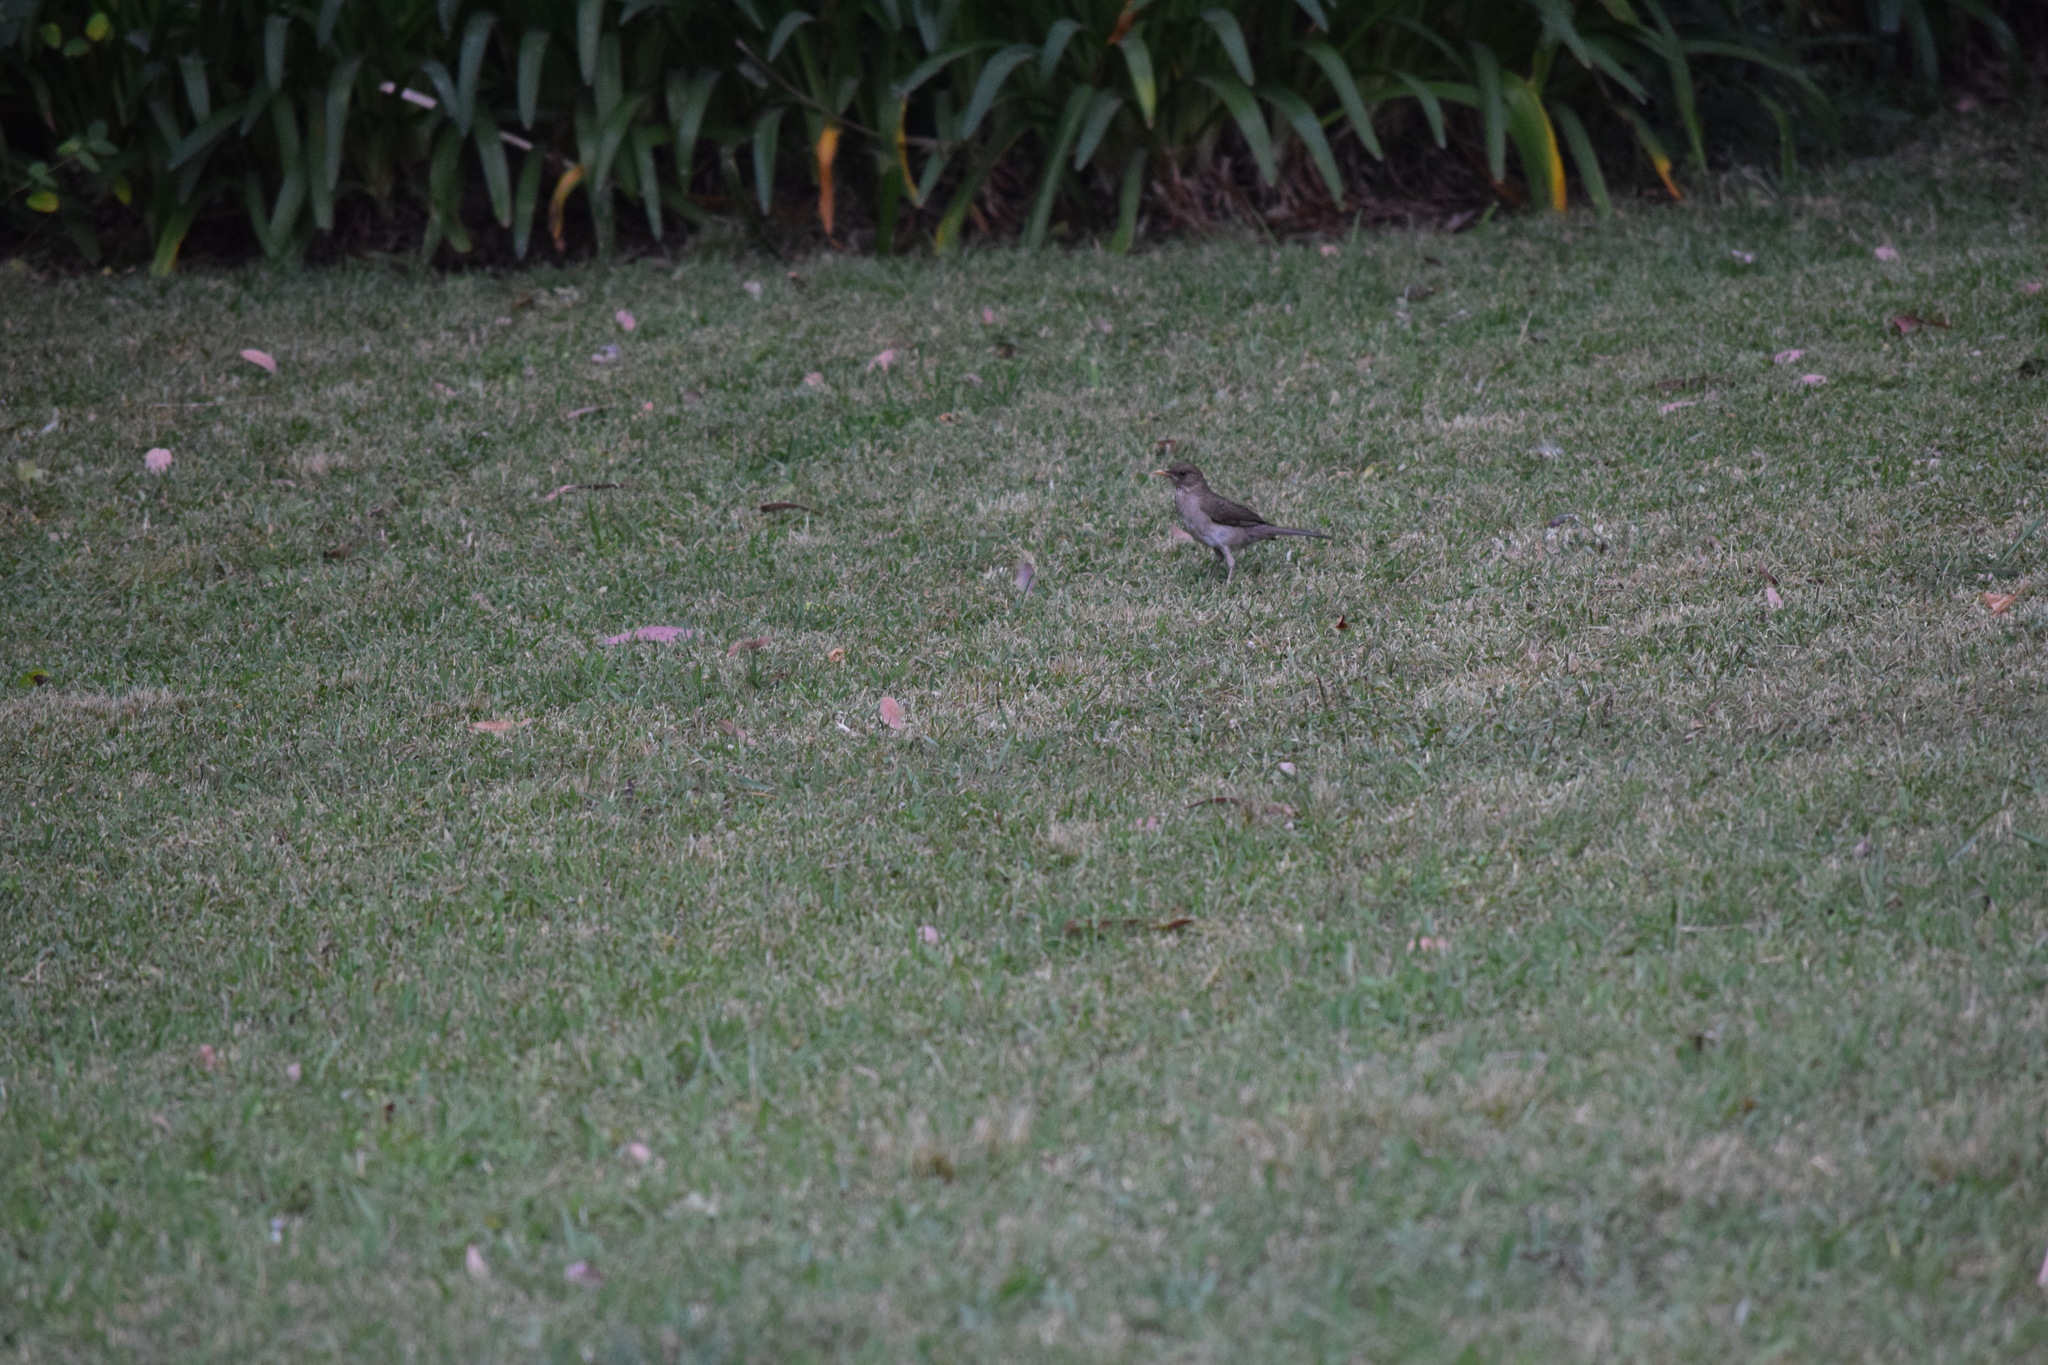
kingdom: Animalia
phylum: Chordata
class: Aves
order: Passeriformes
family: Turdidae
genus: Turdus
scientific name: Turdus amaurochalinus
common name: Creamy-bellied thrush
